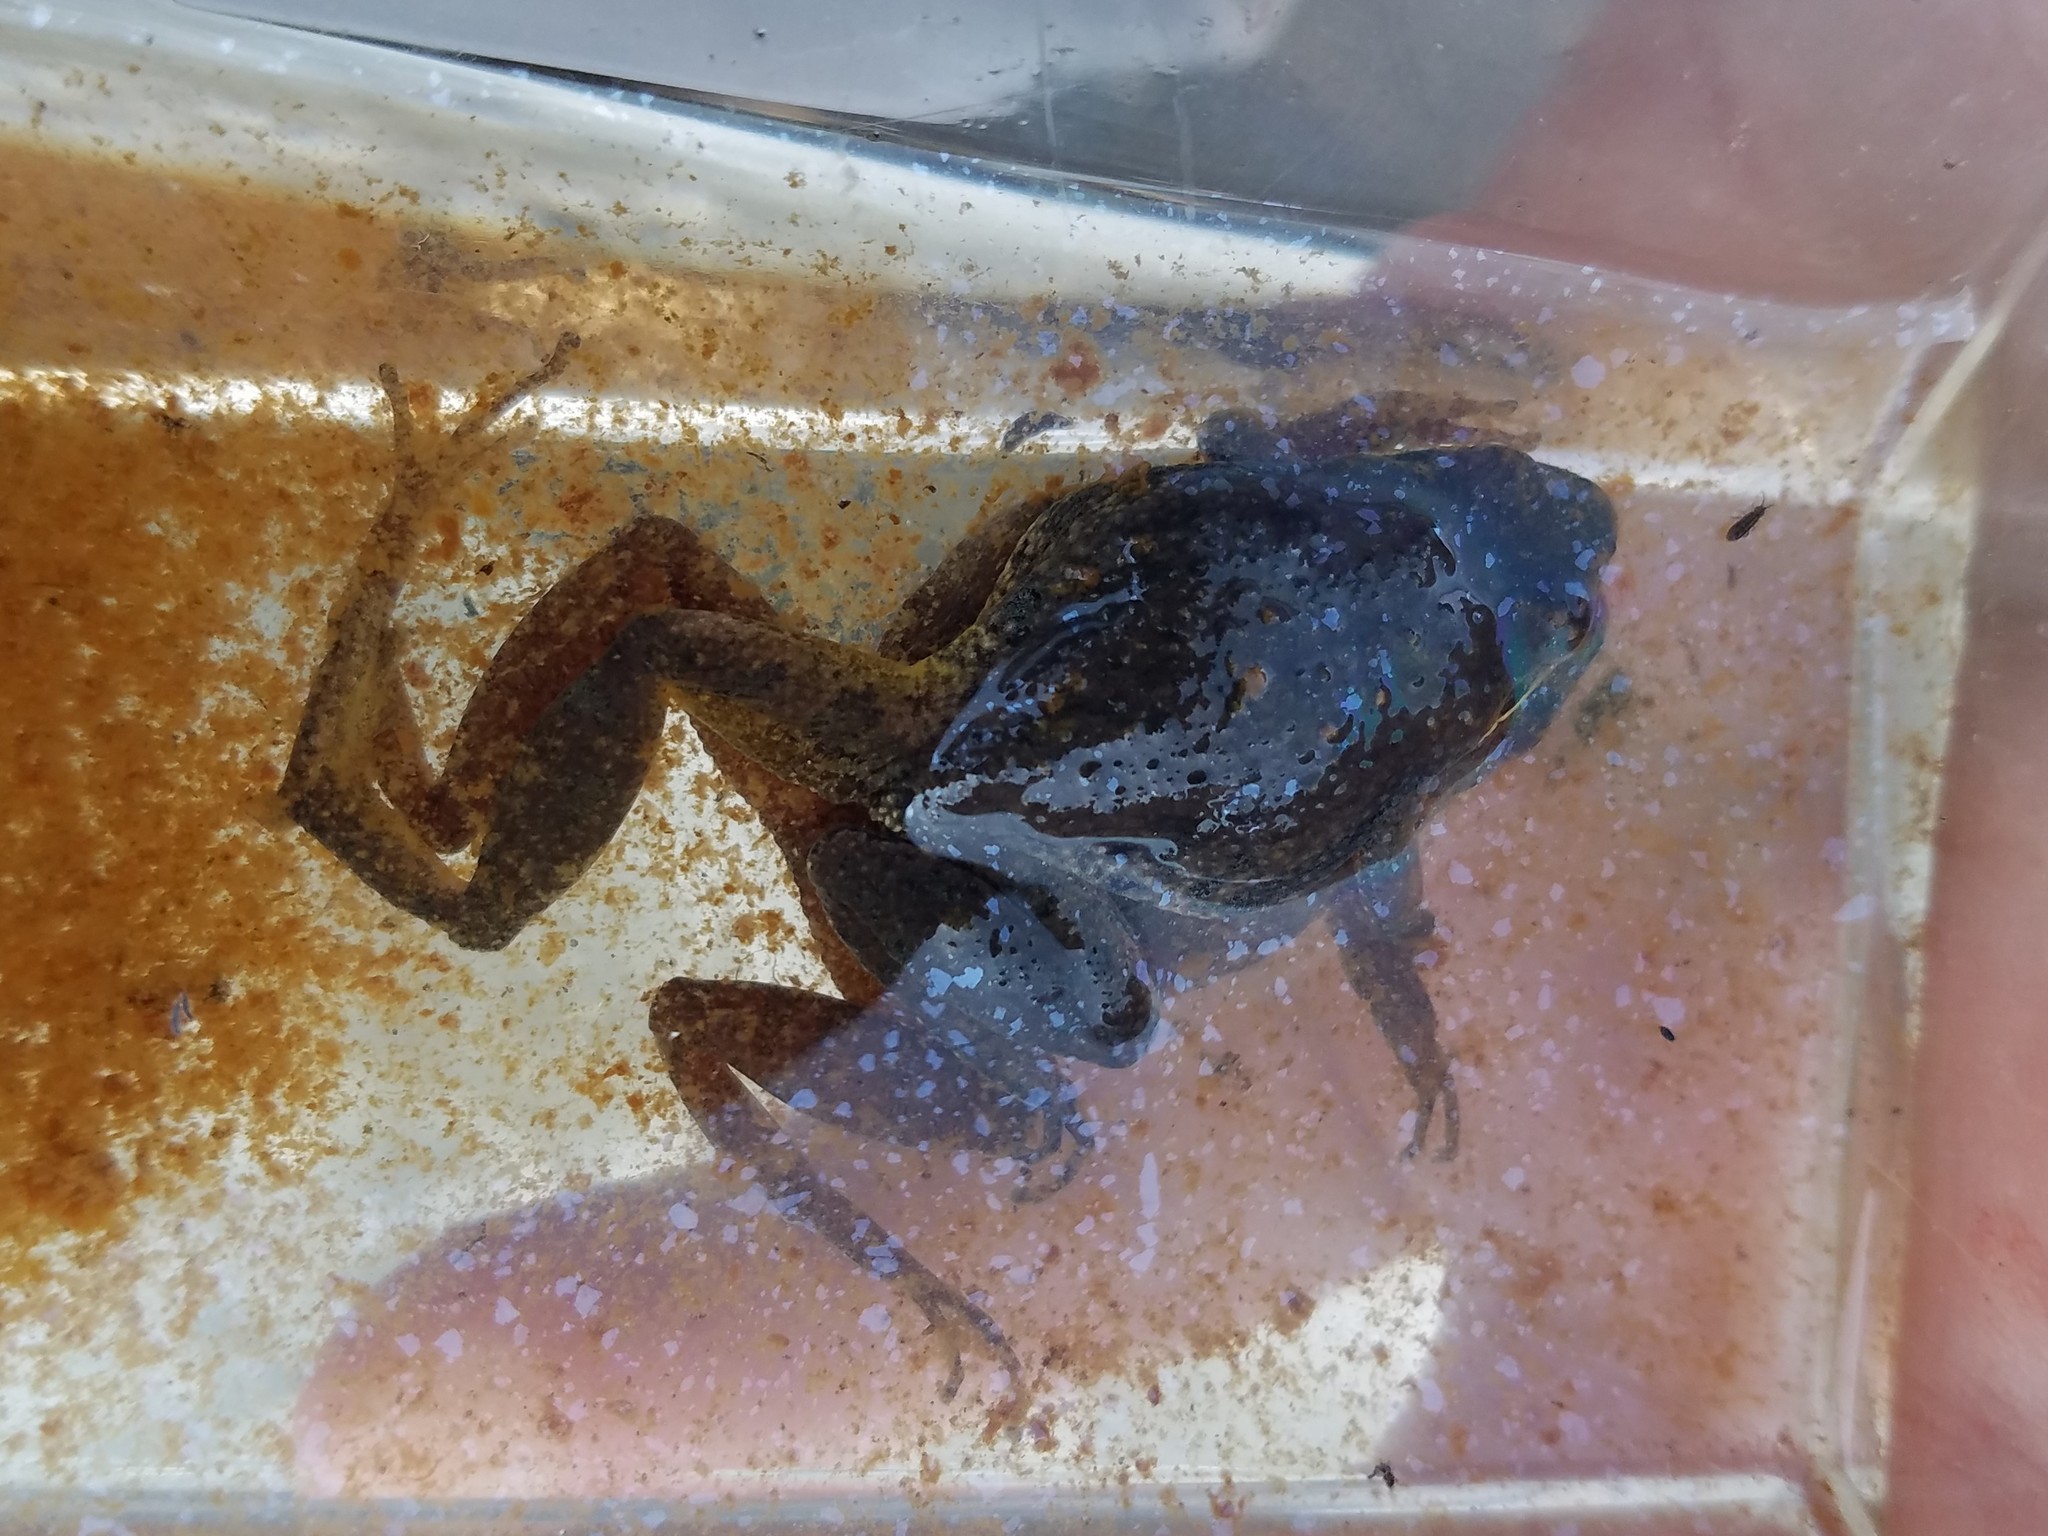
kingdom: Animalia
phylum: Chordata
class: Amphibia
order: Anura
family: Hylidae
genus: Pseudacris
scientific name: Pseudacris feriarum
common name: Upland chorus frog
